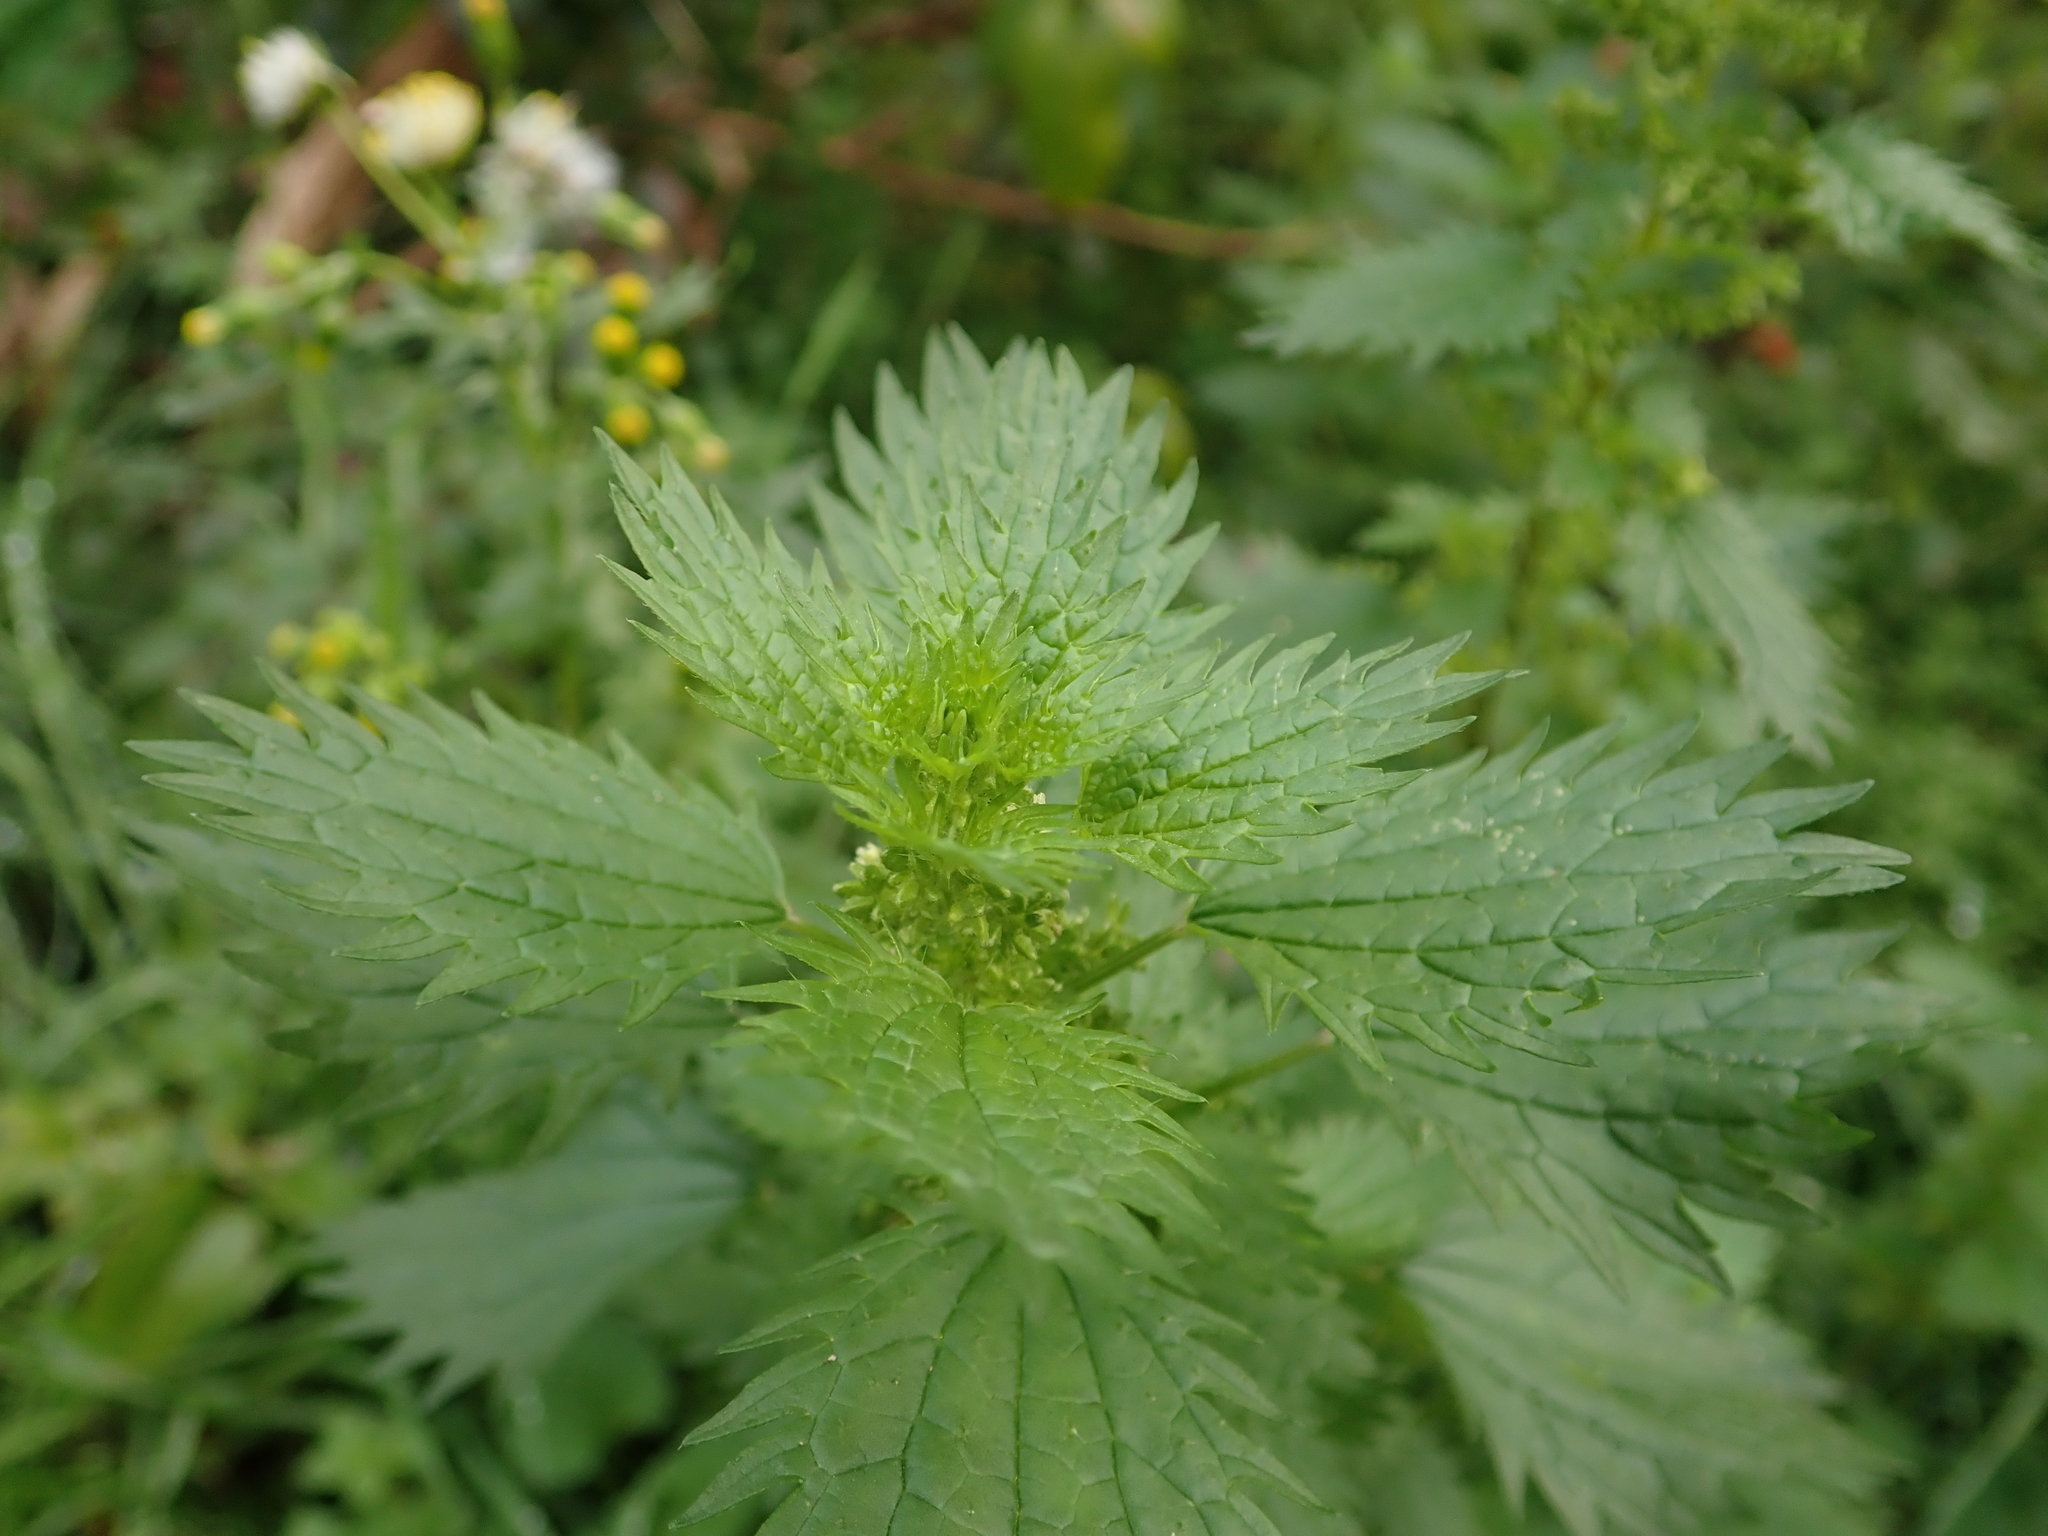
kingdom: Plantae
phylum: Tracheophyta
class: Magnoliopsida
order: Rosales
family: Urticaceae
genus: Urtica
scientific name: Urtica urens
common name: Dwarf nettle
